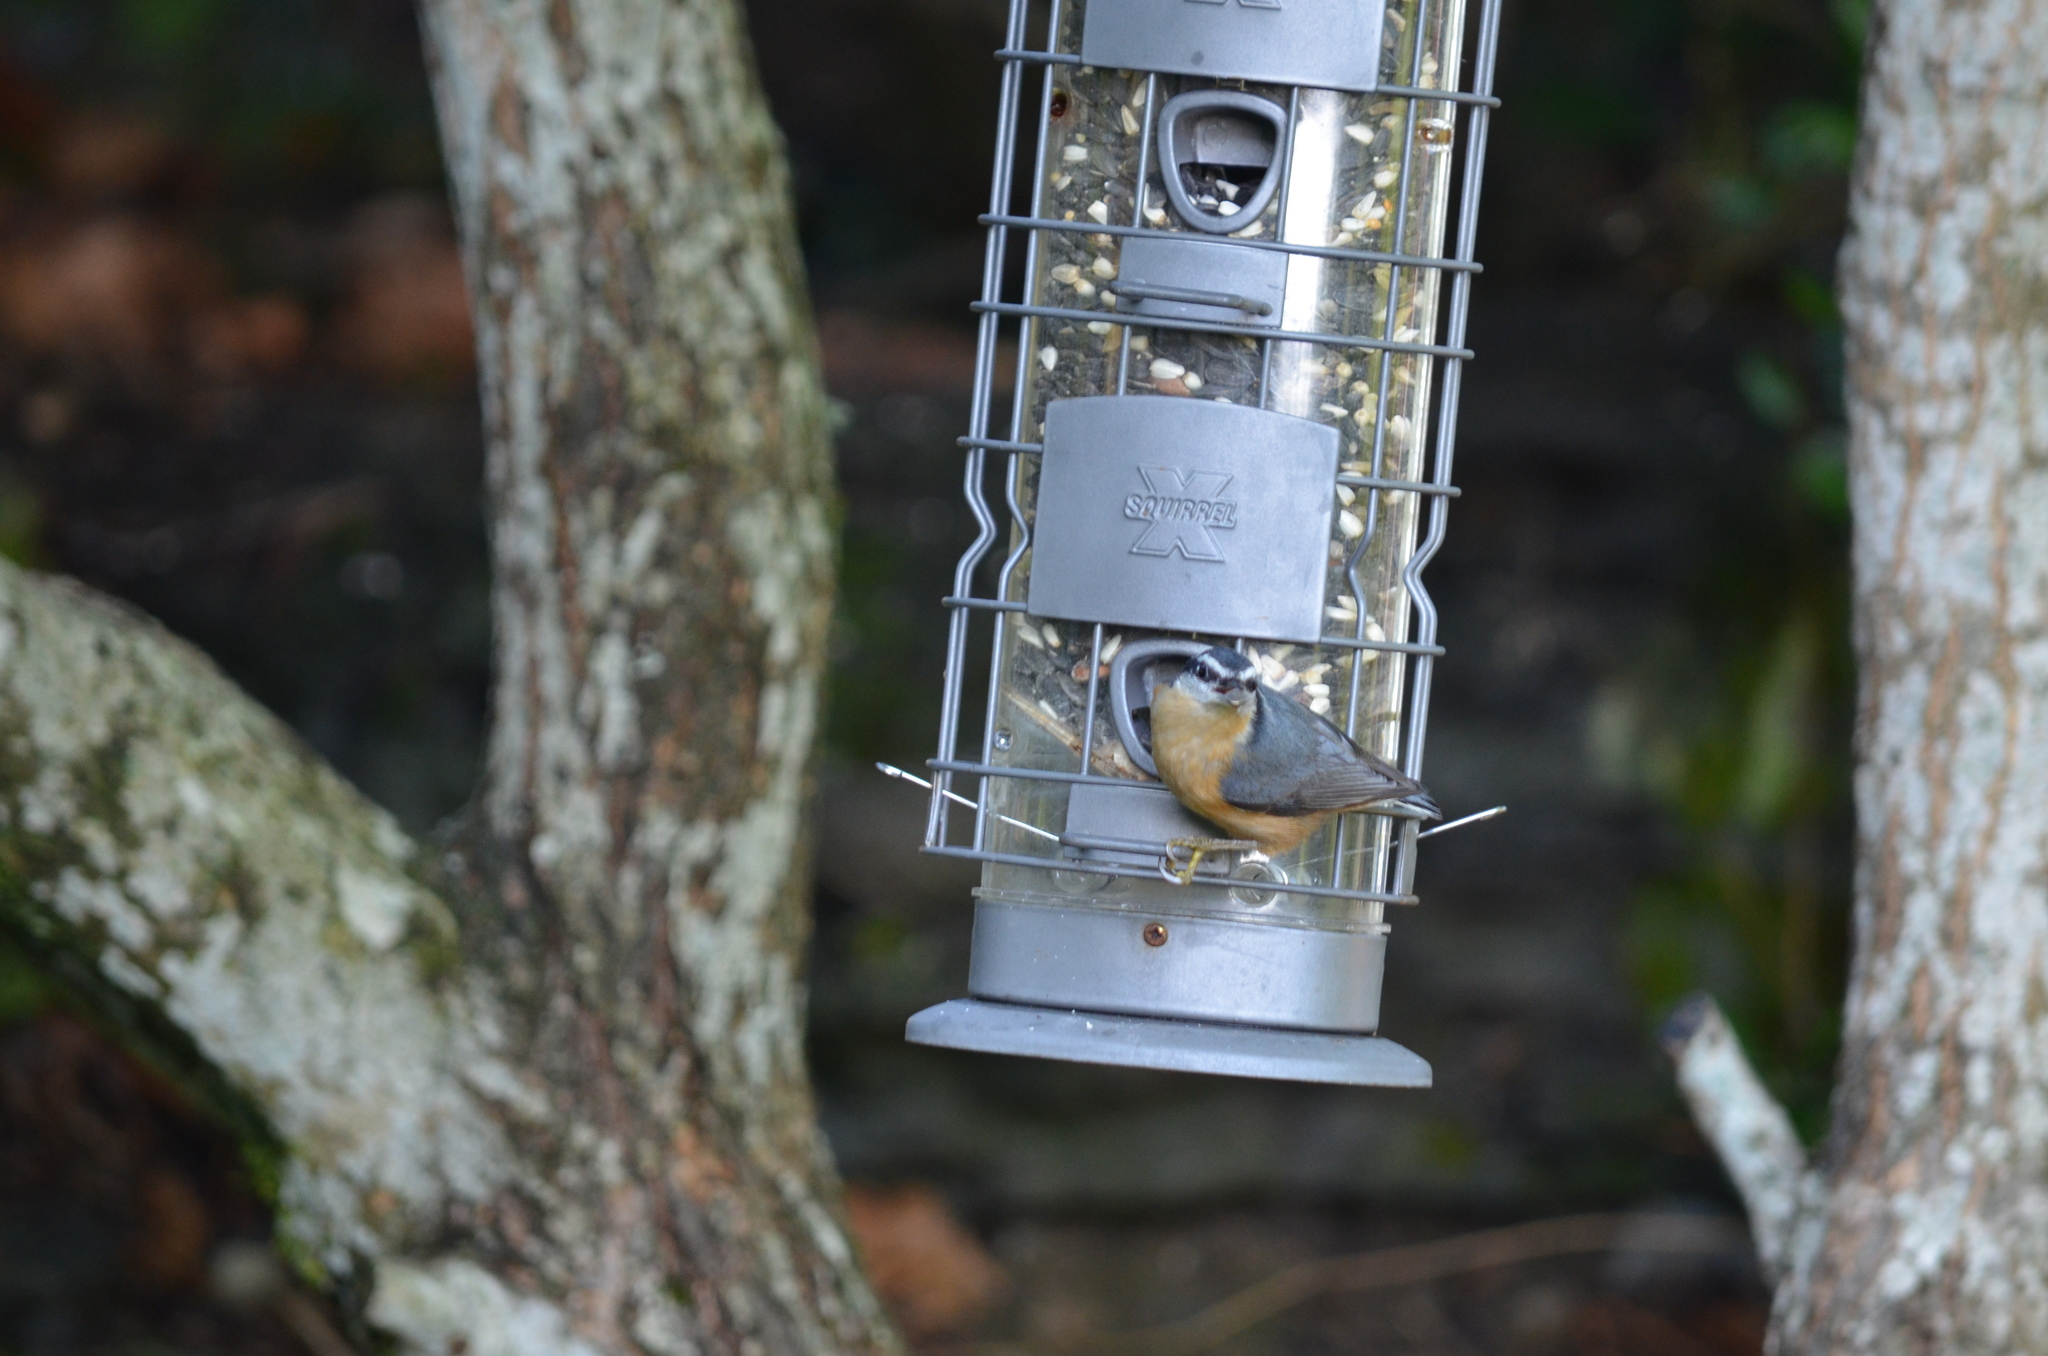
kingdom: Animalia
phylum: Chordata
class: Aves
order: Passeriformes
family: Sittidae
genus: Sitta
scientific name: Sitta canadensis
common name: Red-breasted nuthatch
